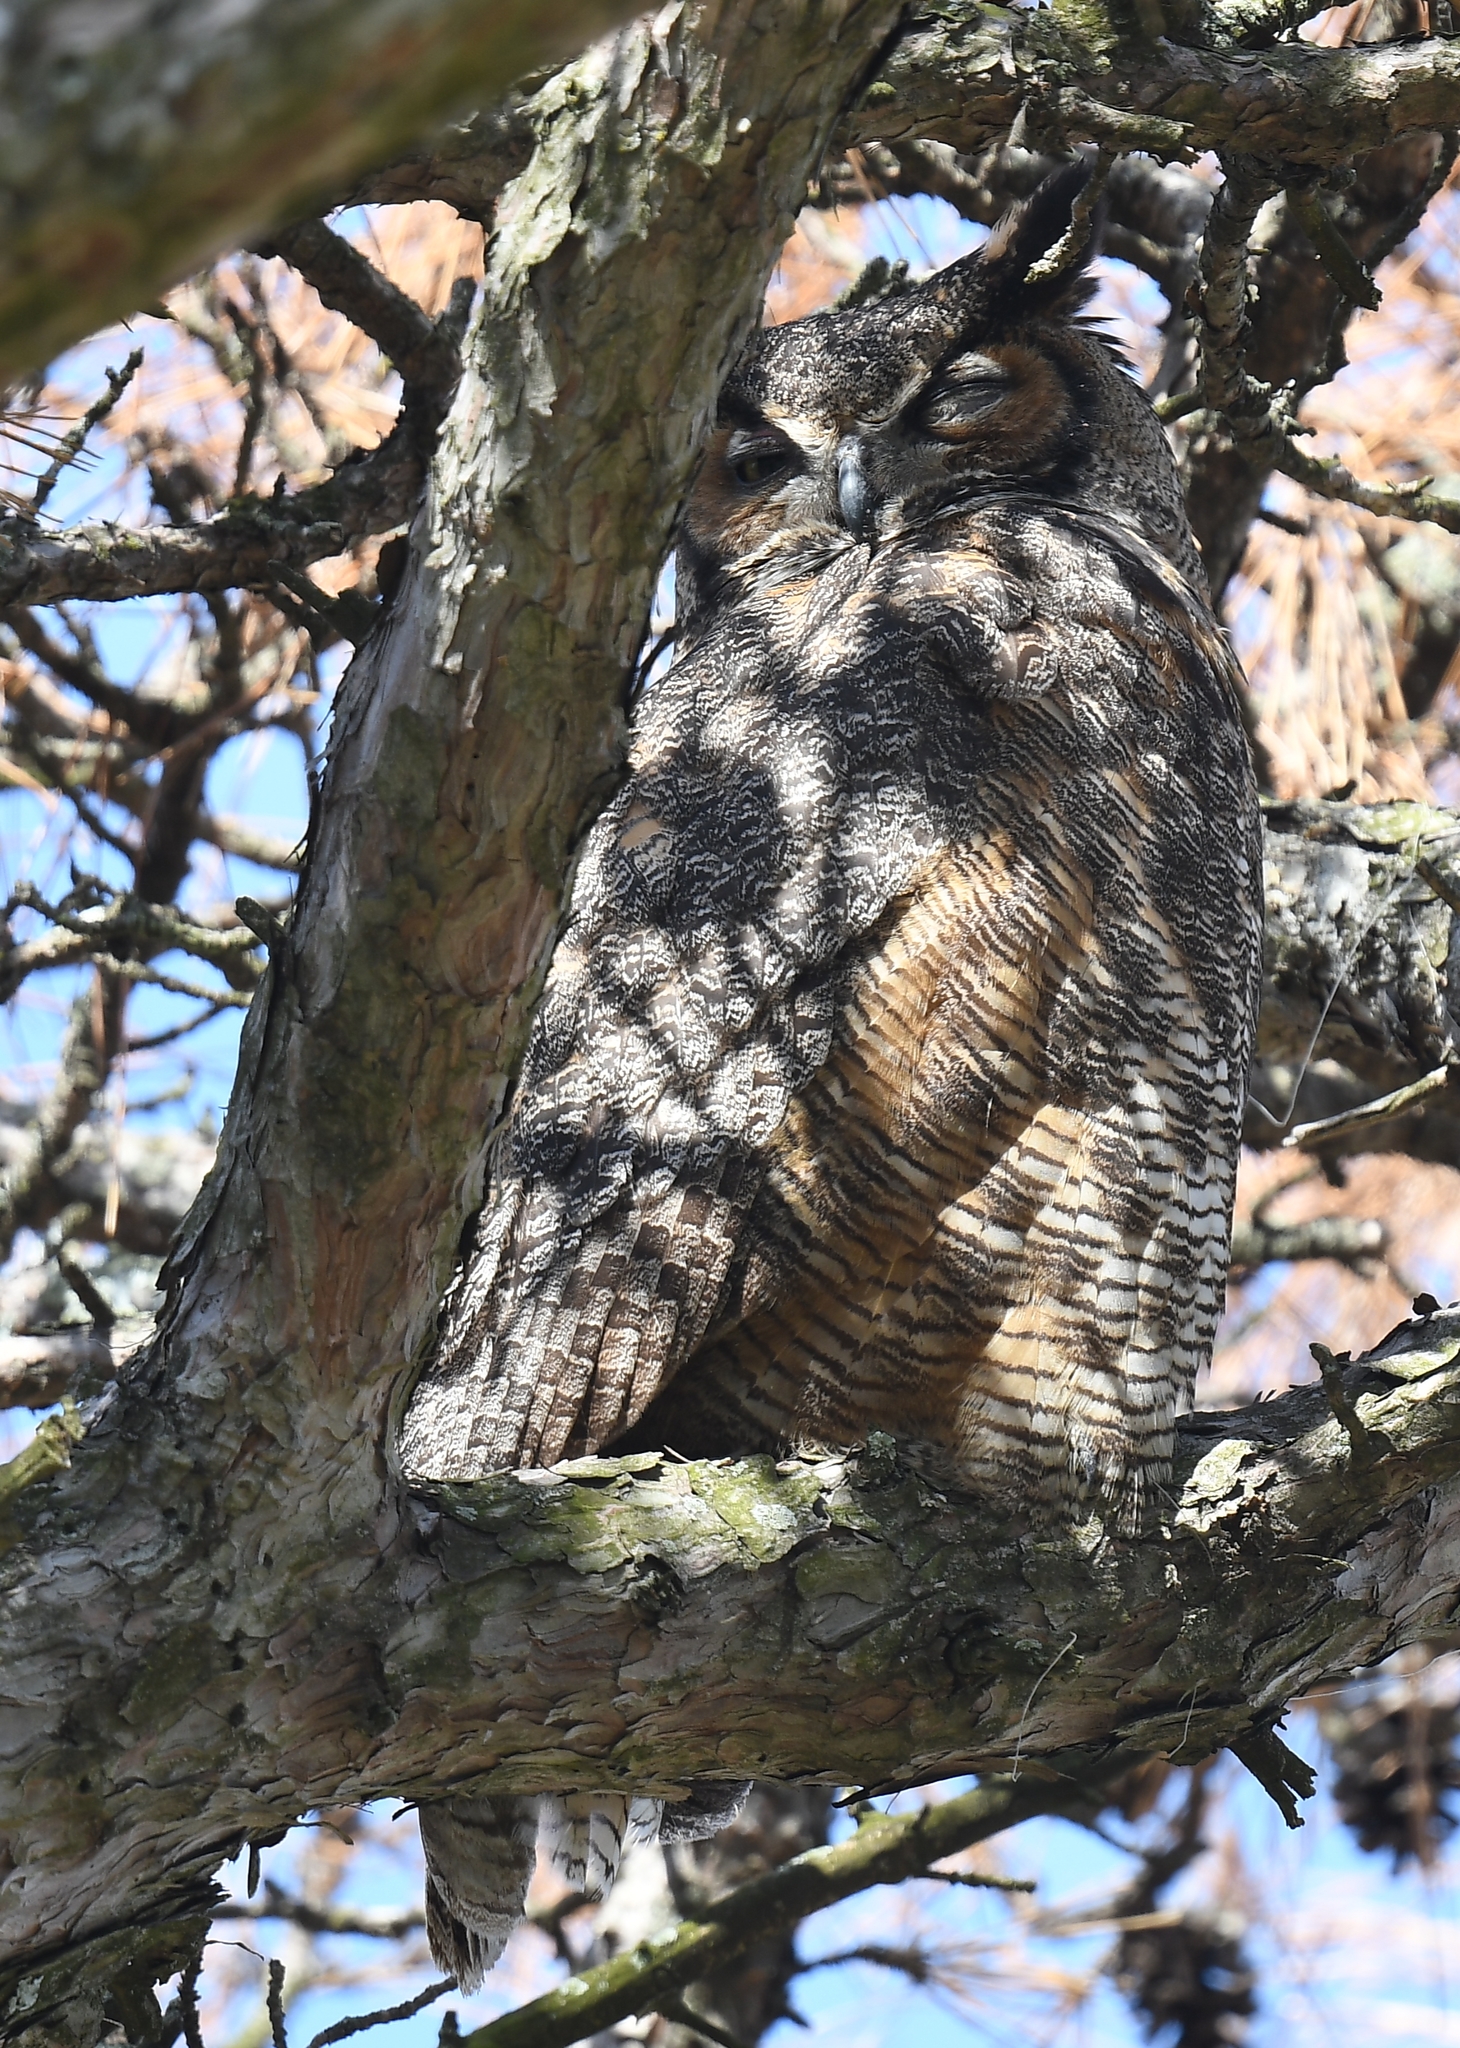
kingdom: Animalia
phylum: Chordata
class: Aves
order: Strigiformes
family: Strigidae
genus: Bubo
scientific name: Bubo virginianus
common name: Great horned owl
